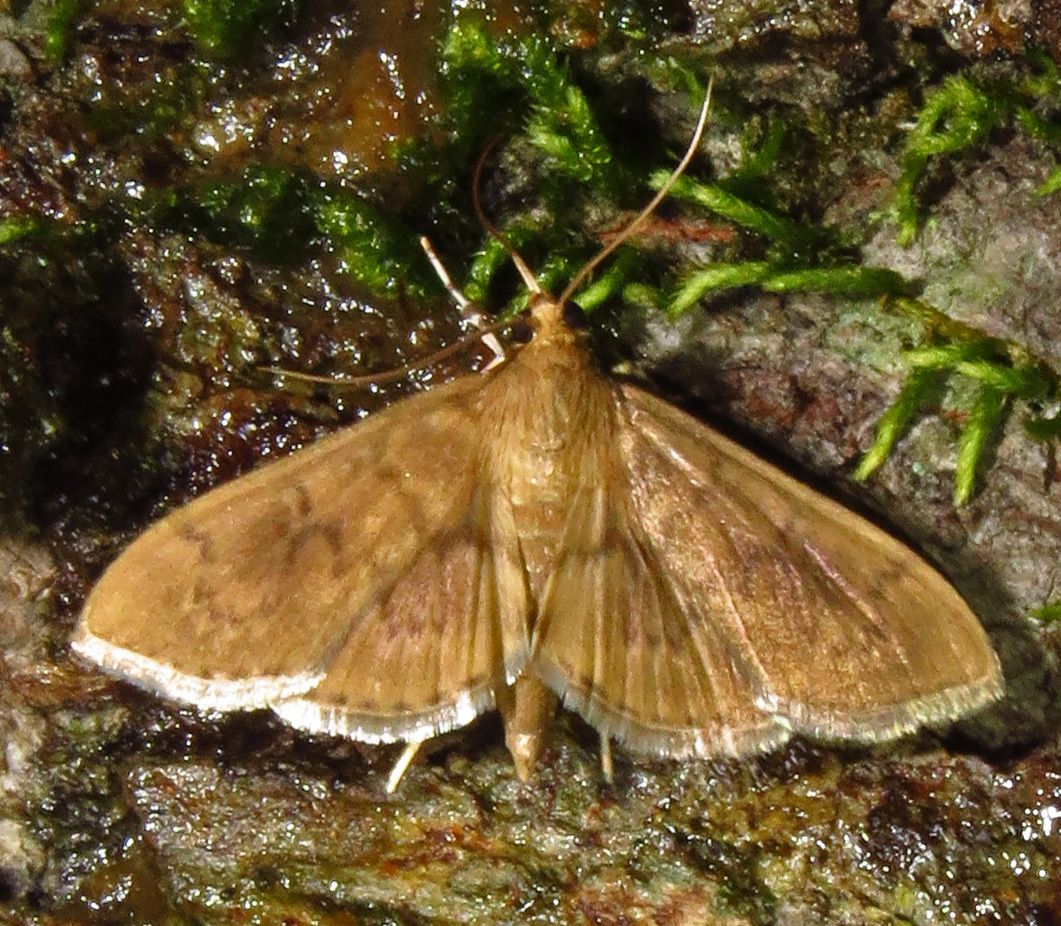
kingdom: Animalia
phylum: Arthropoda
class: Insecta
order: Lepidoptera
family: Crambidae
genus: Syllepte
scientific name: Syllepte obscuralis
